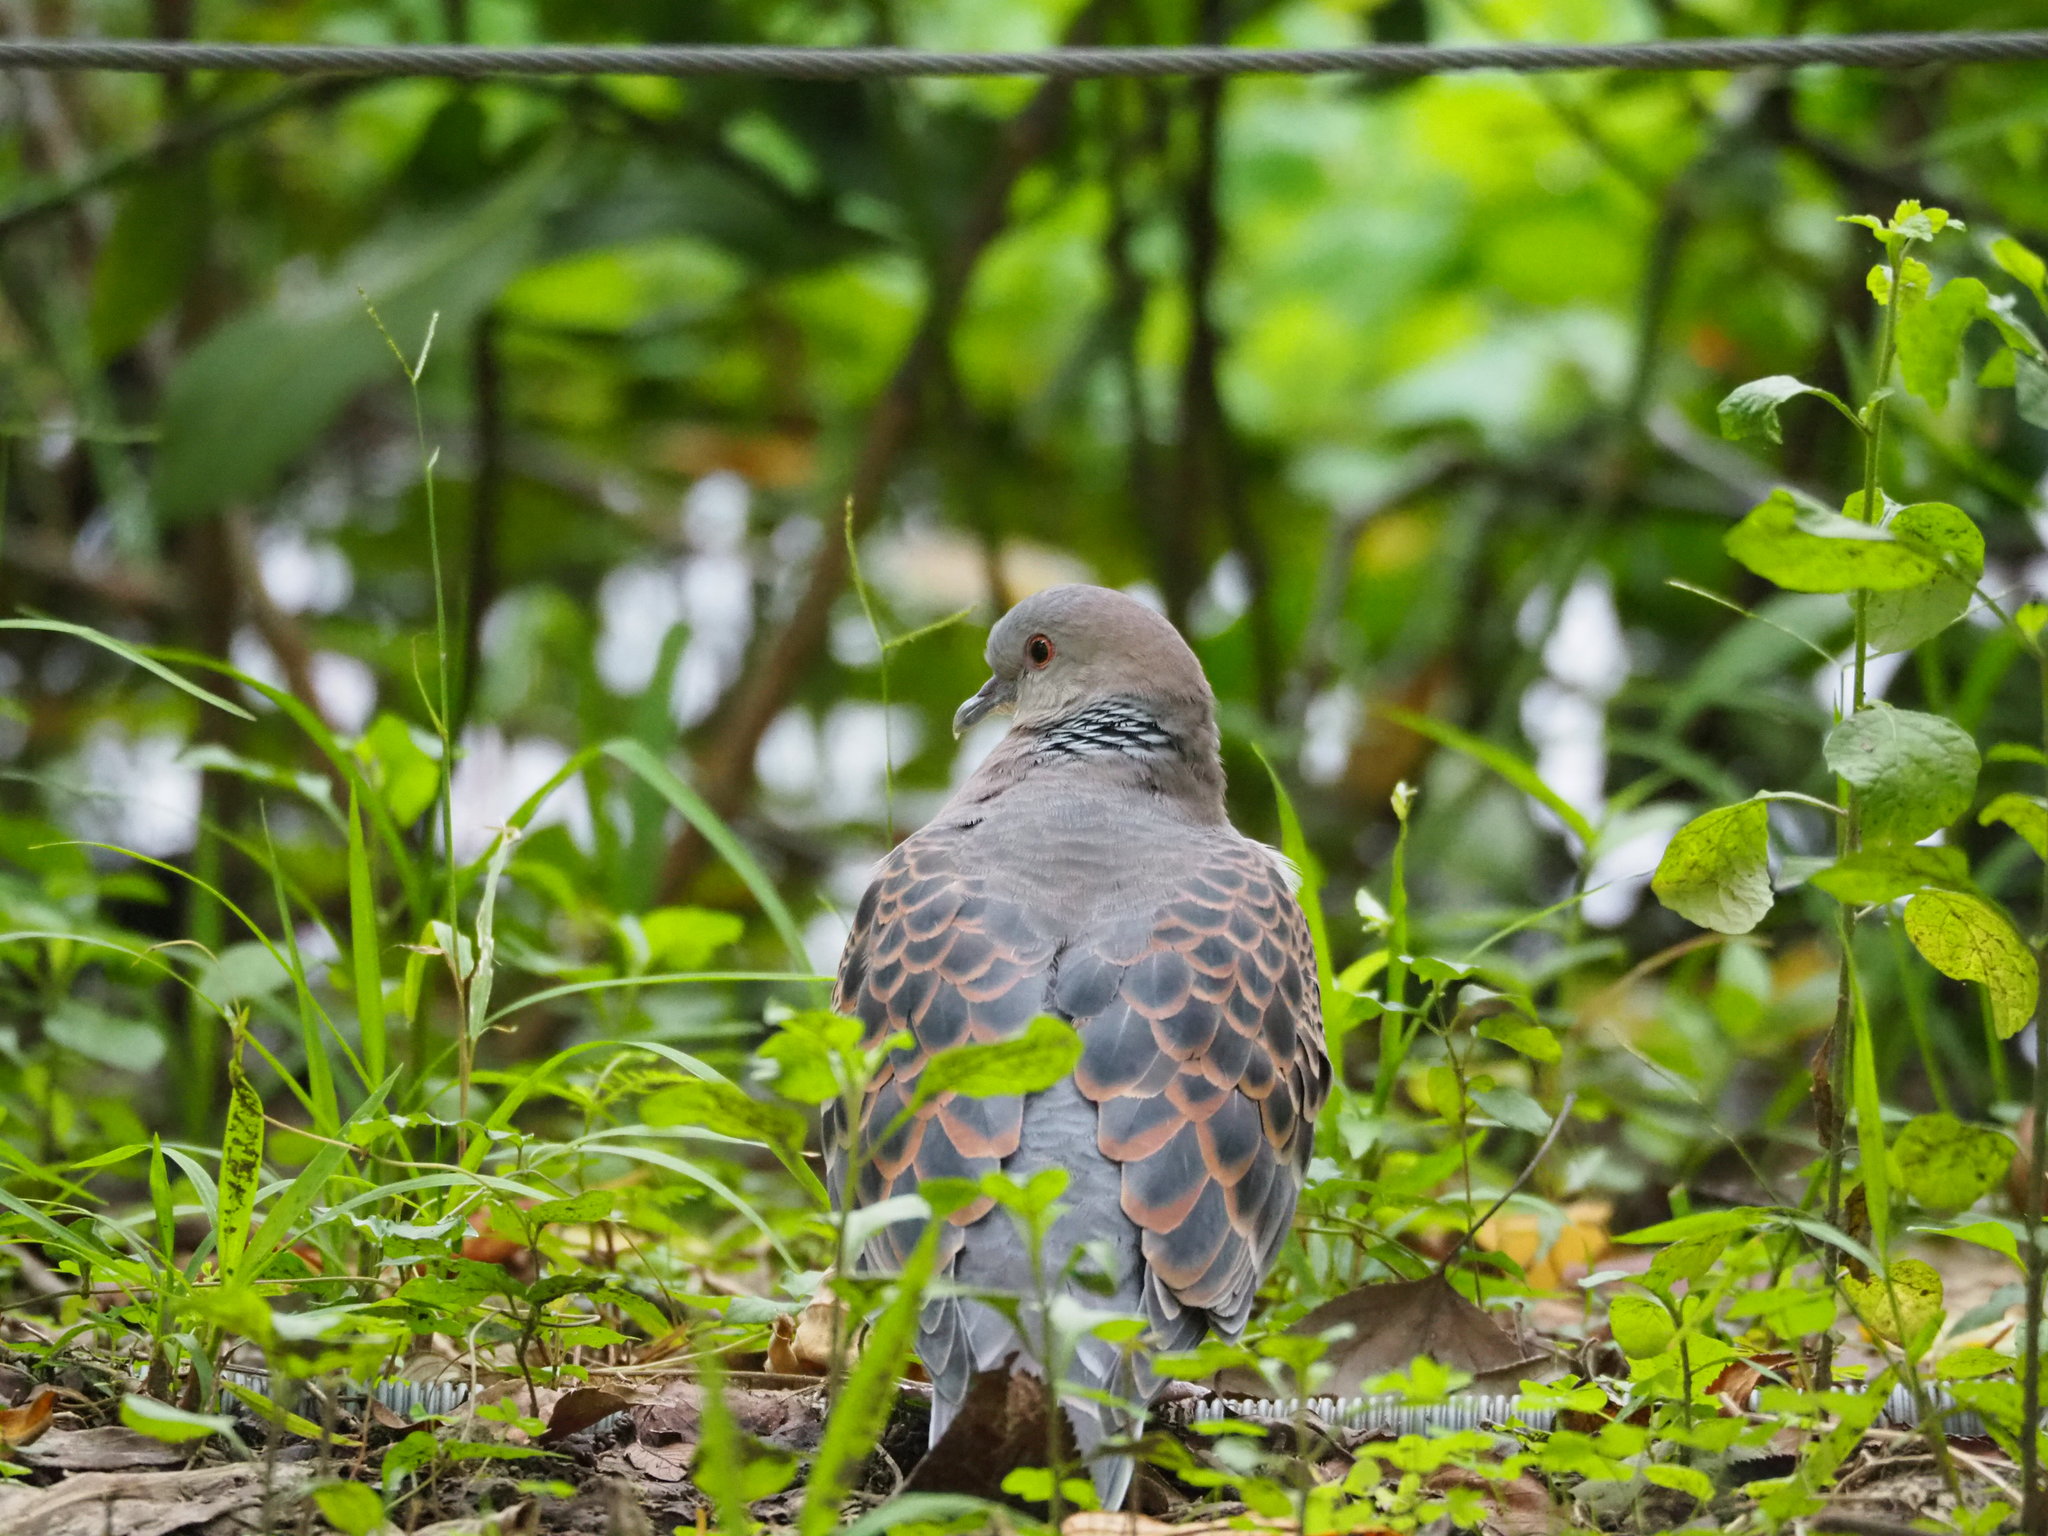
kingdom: Animalia
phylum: Chordata
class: Aves
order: Columbiformes
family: Columbidae
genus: Streptopelia
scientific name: Streptopelia orientalis
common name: Oriental turtle dove
